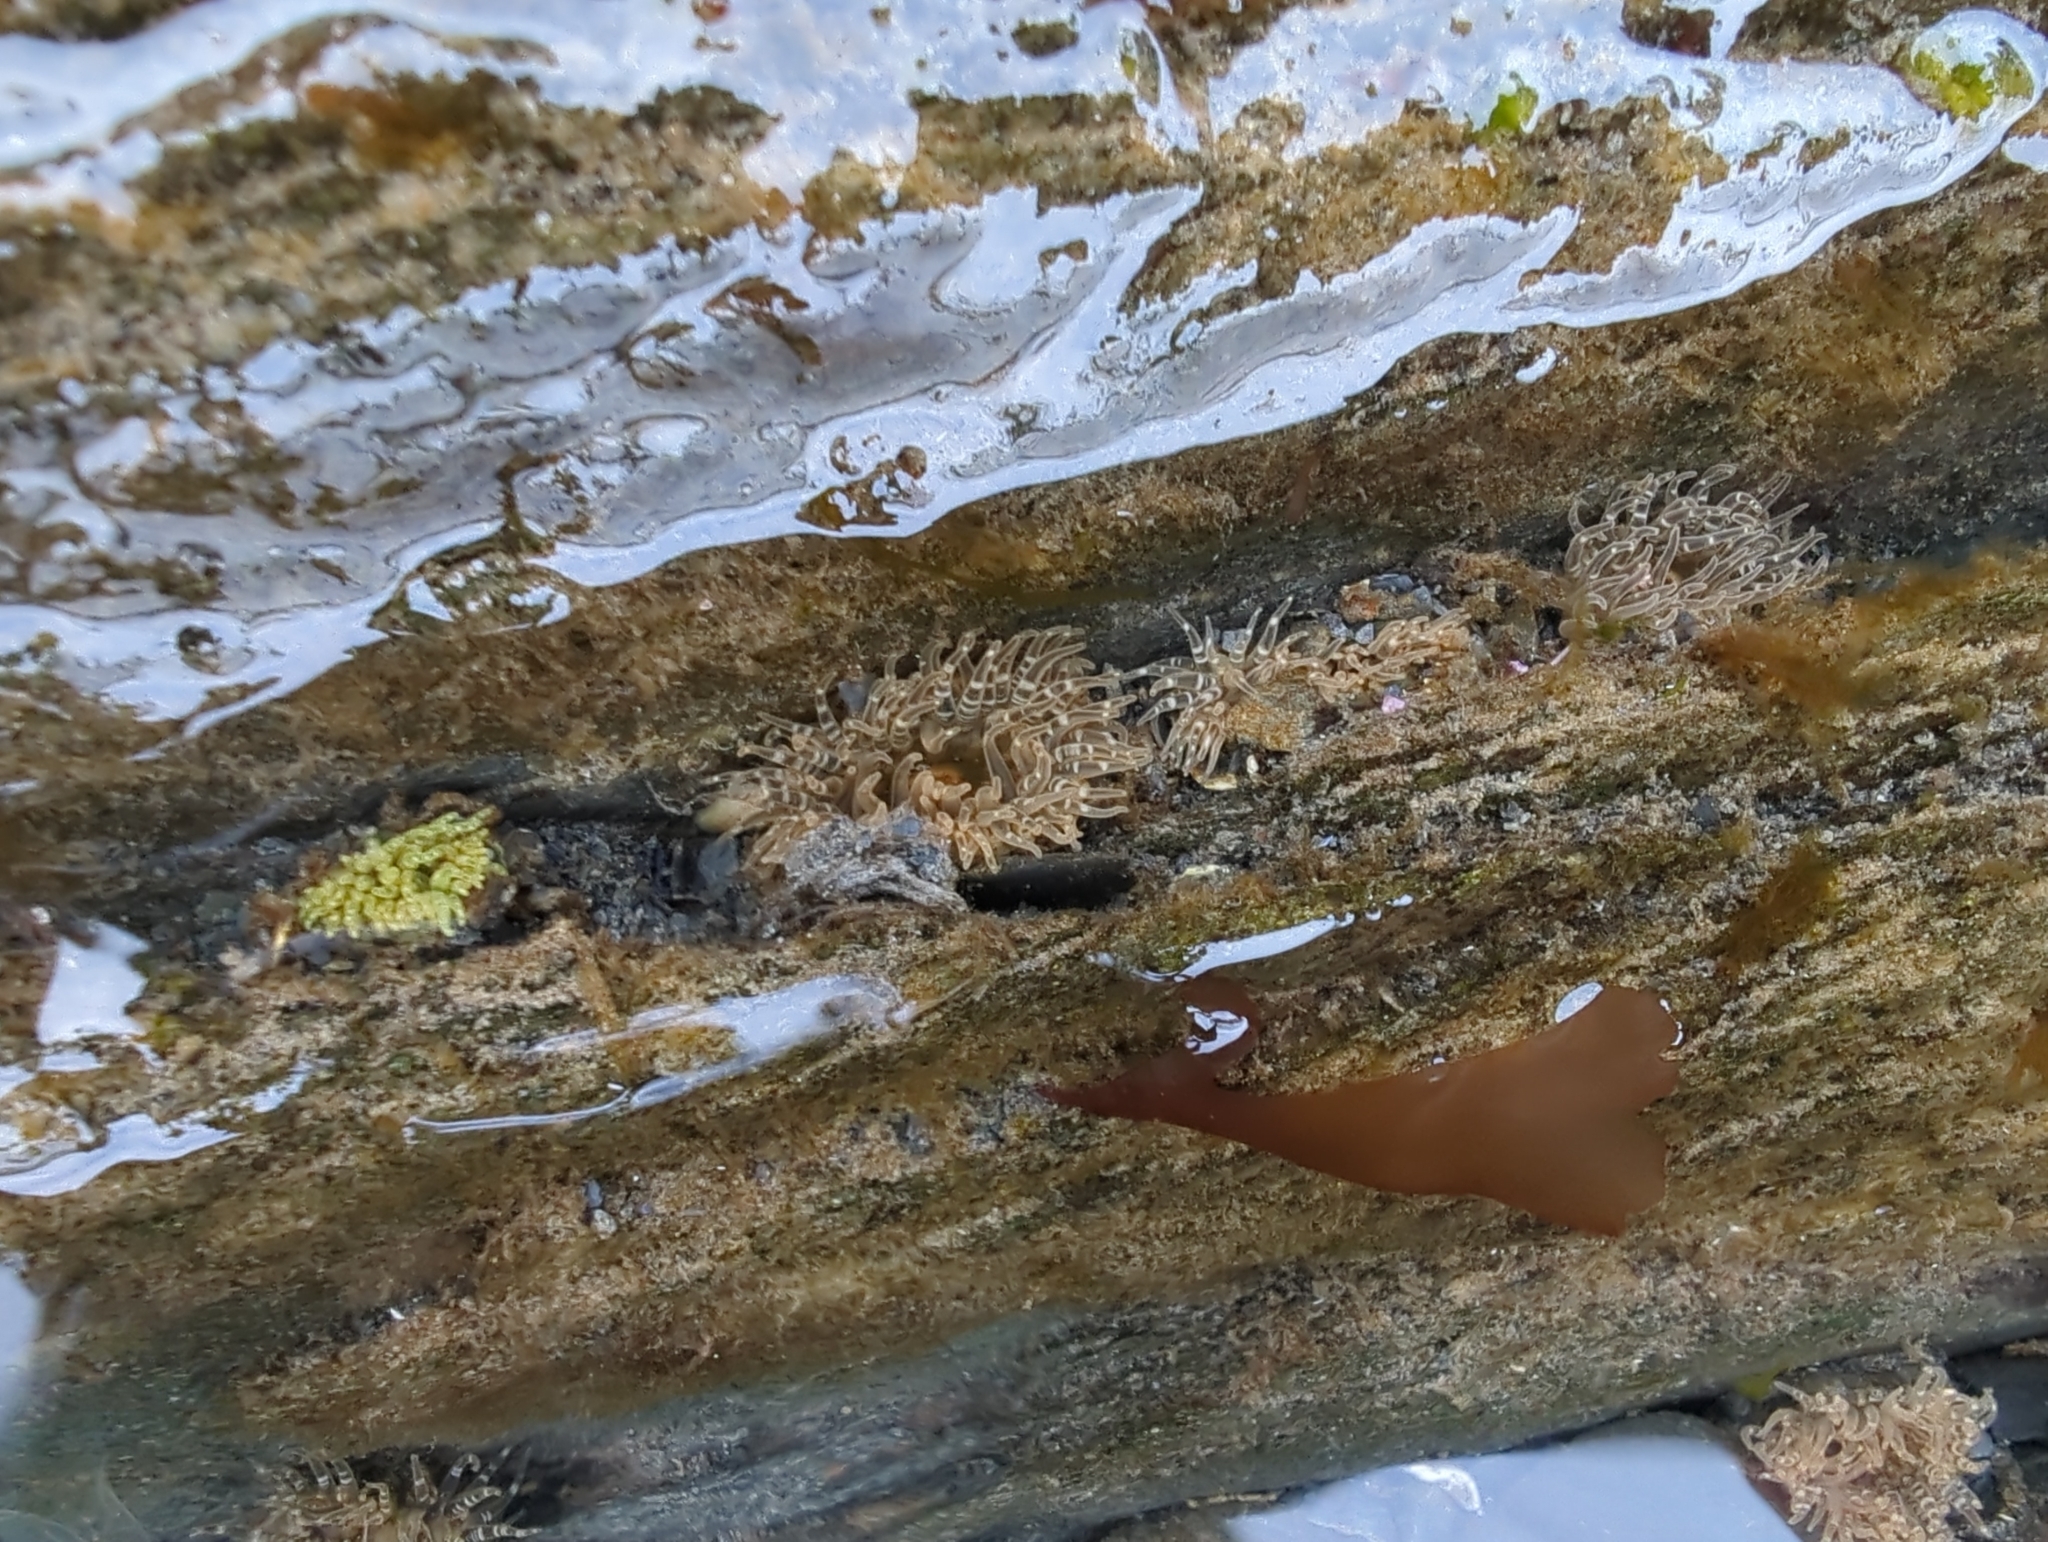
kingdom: Animalia
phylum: Cnidaria
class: Anthozoa
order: Actiniaria
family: Actiniidae
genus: Anthopleura
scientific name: Anthopleura artemisia
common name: Buried sea anemone
